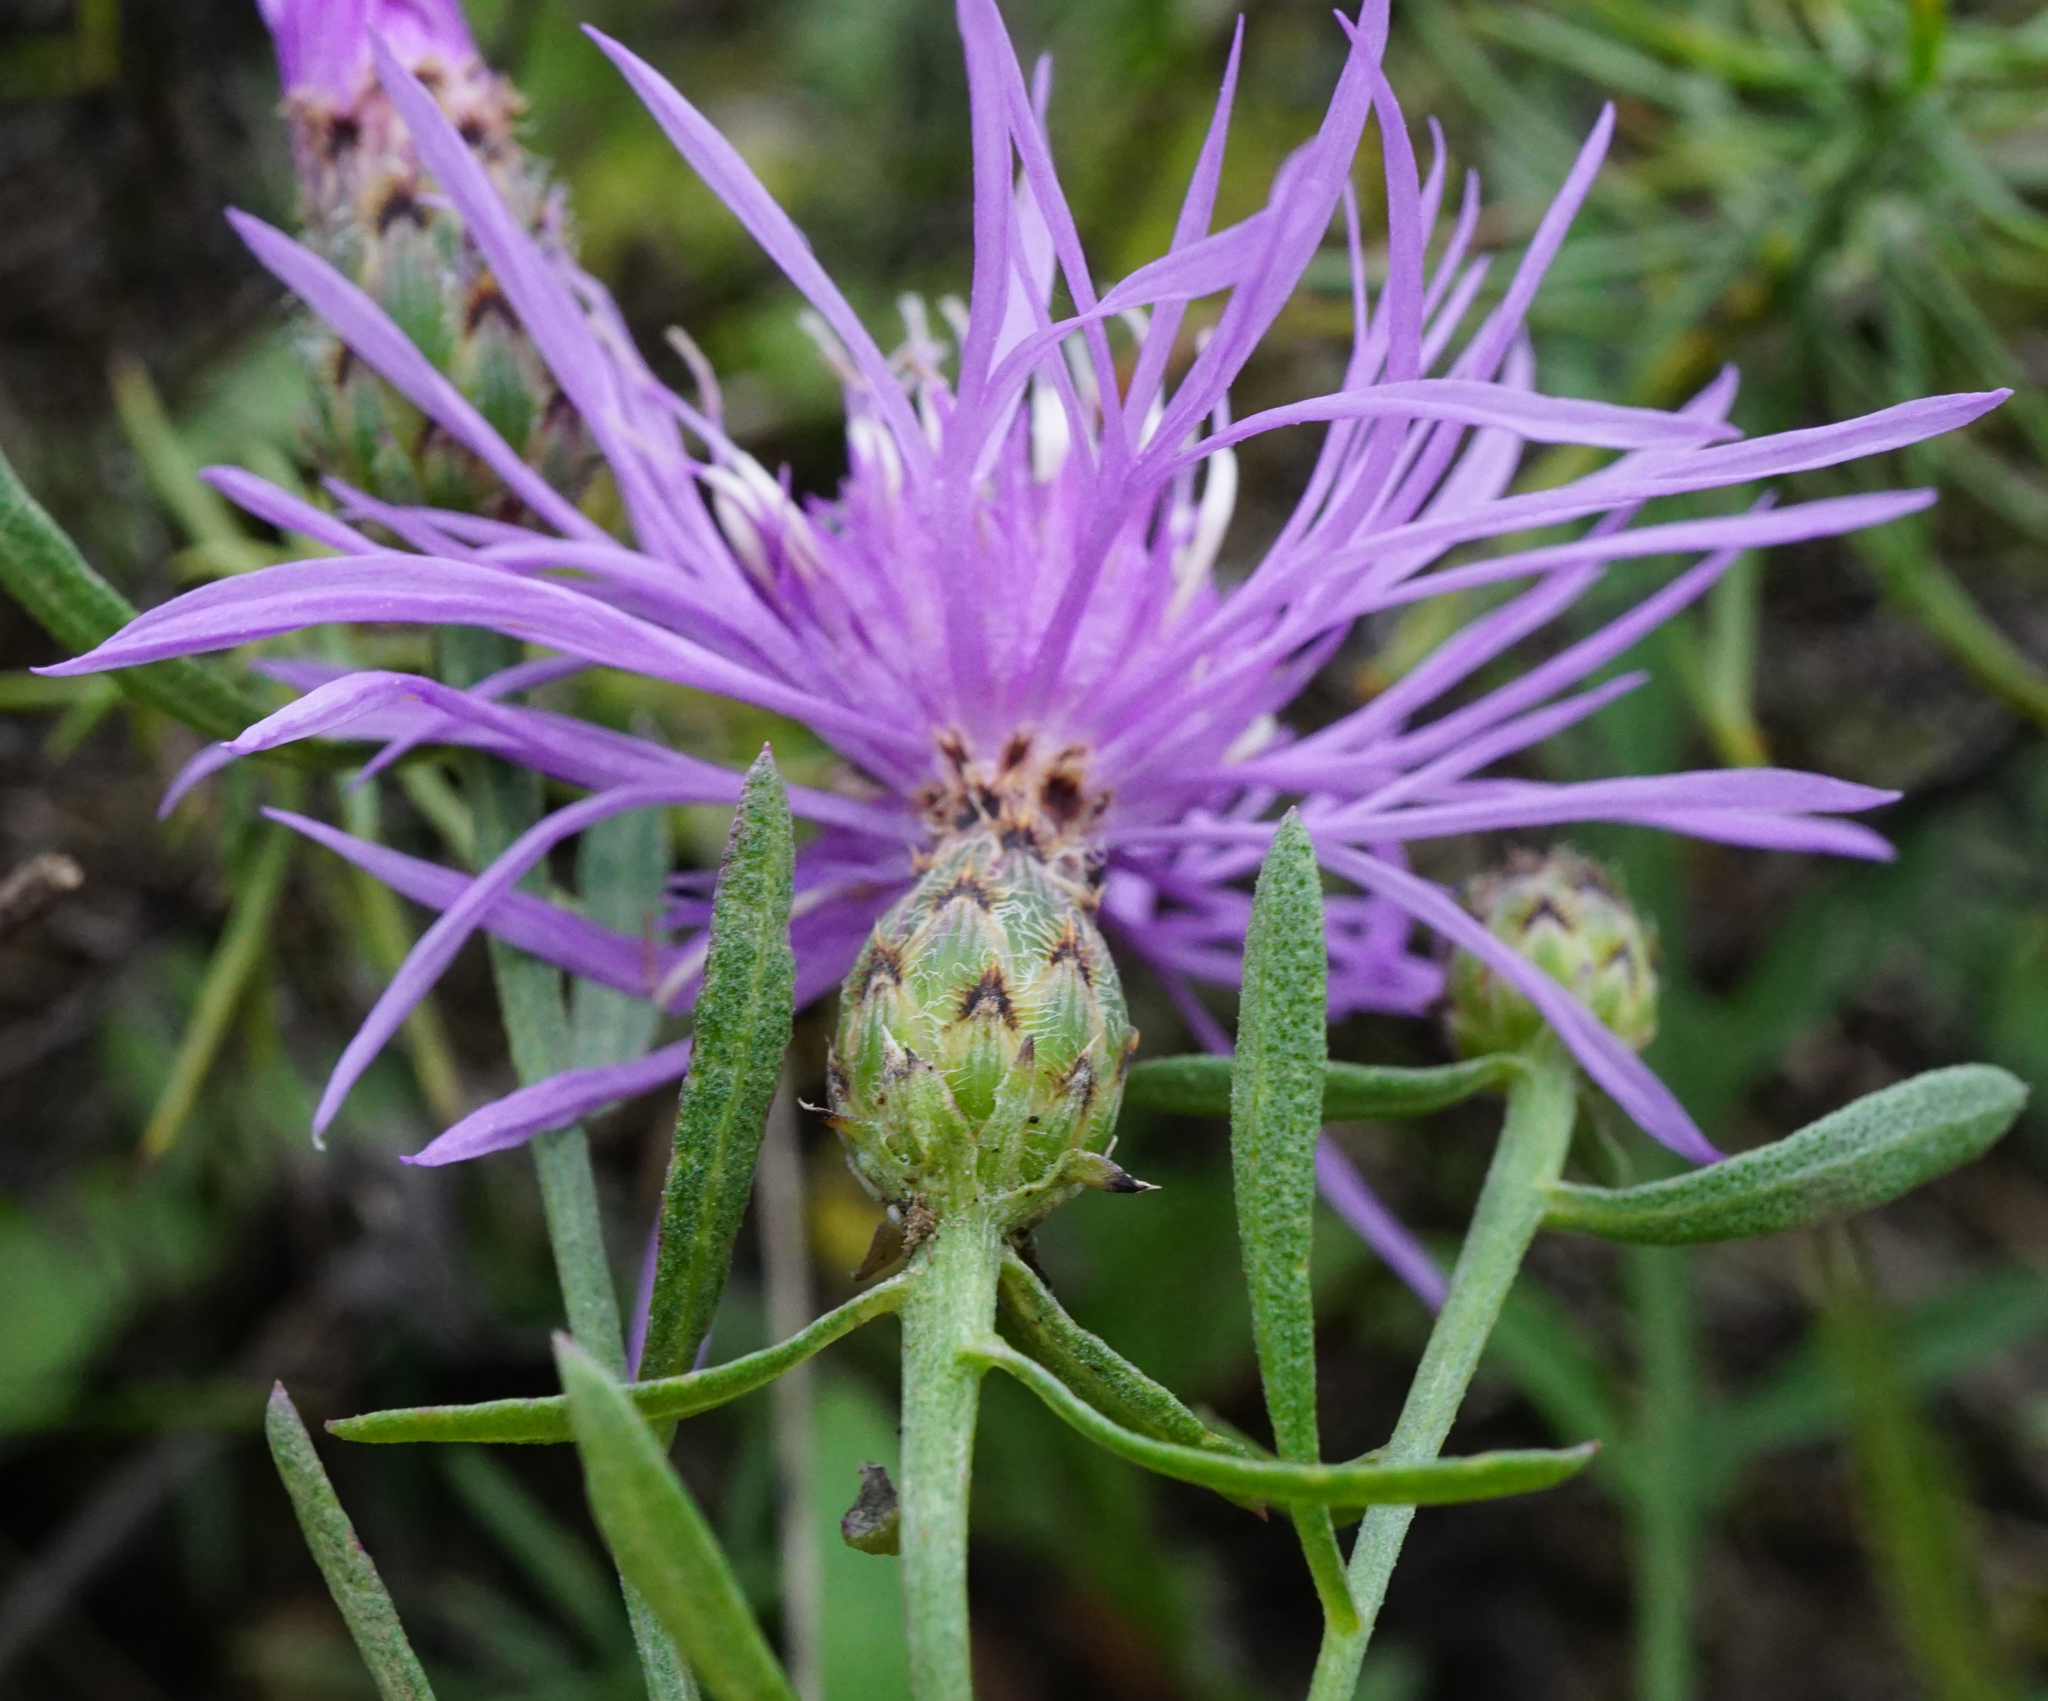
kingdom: Plantae
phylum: Tracheophyta
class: Magnoliopsida
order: Asterales
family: Asteraceae
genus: Centaurea
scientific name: Centaurea stoebe
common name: Spotted knapweed
